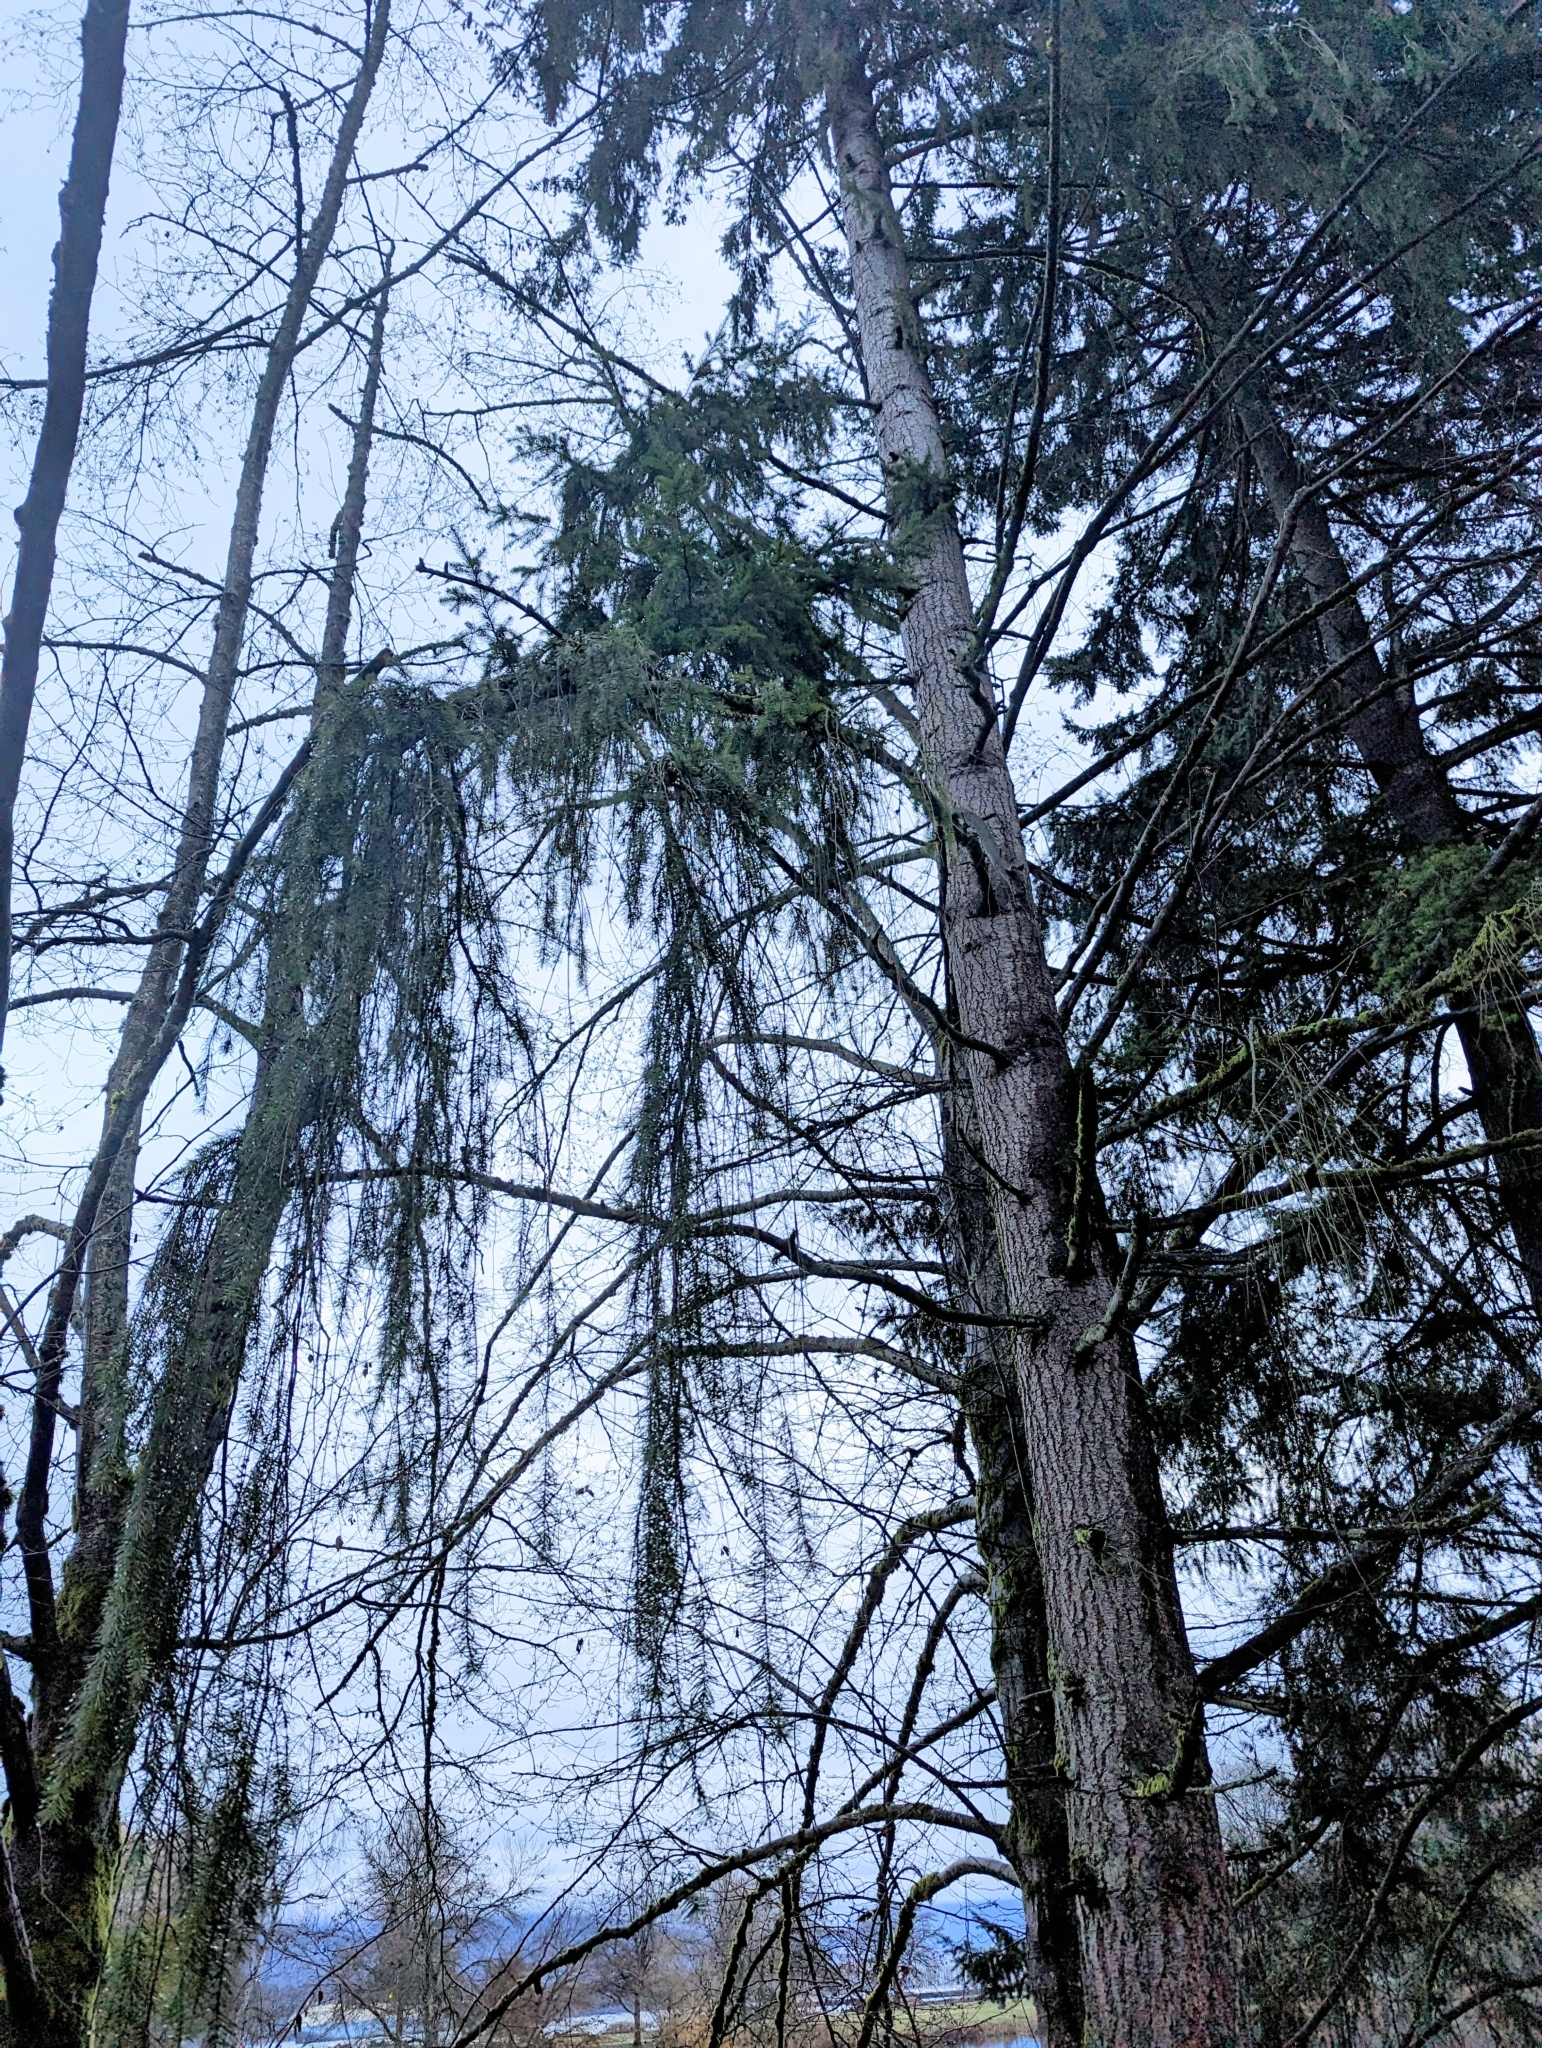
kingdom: Plantae
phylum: Tracheophyta
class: Pinopsida
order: Pinales
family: Pinaceae
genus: Pseudotsuga
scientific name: Pseudotsuga menziesii
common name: Douglas fir
